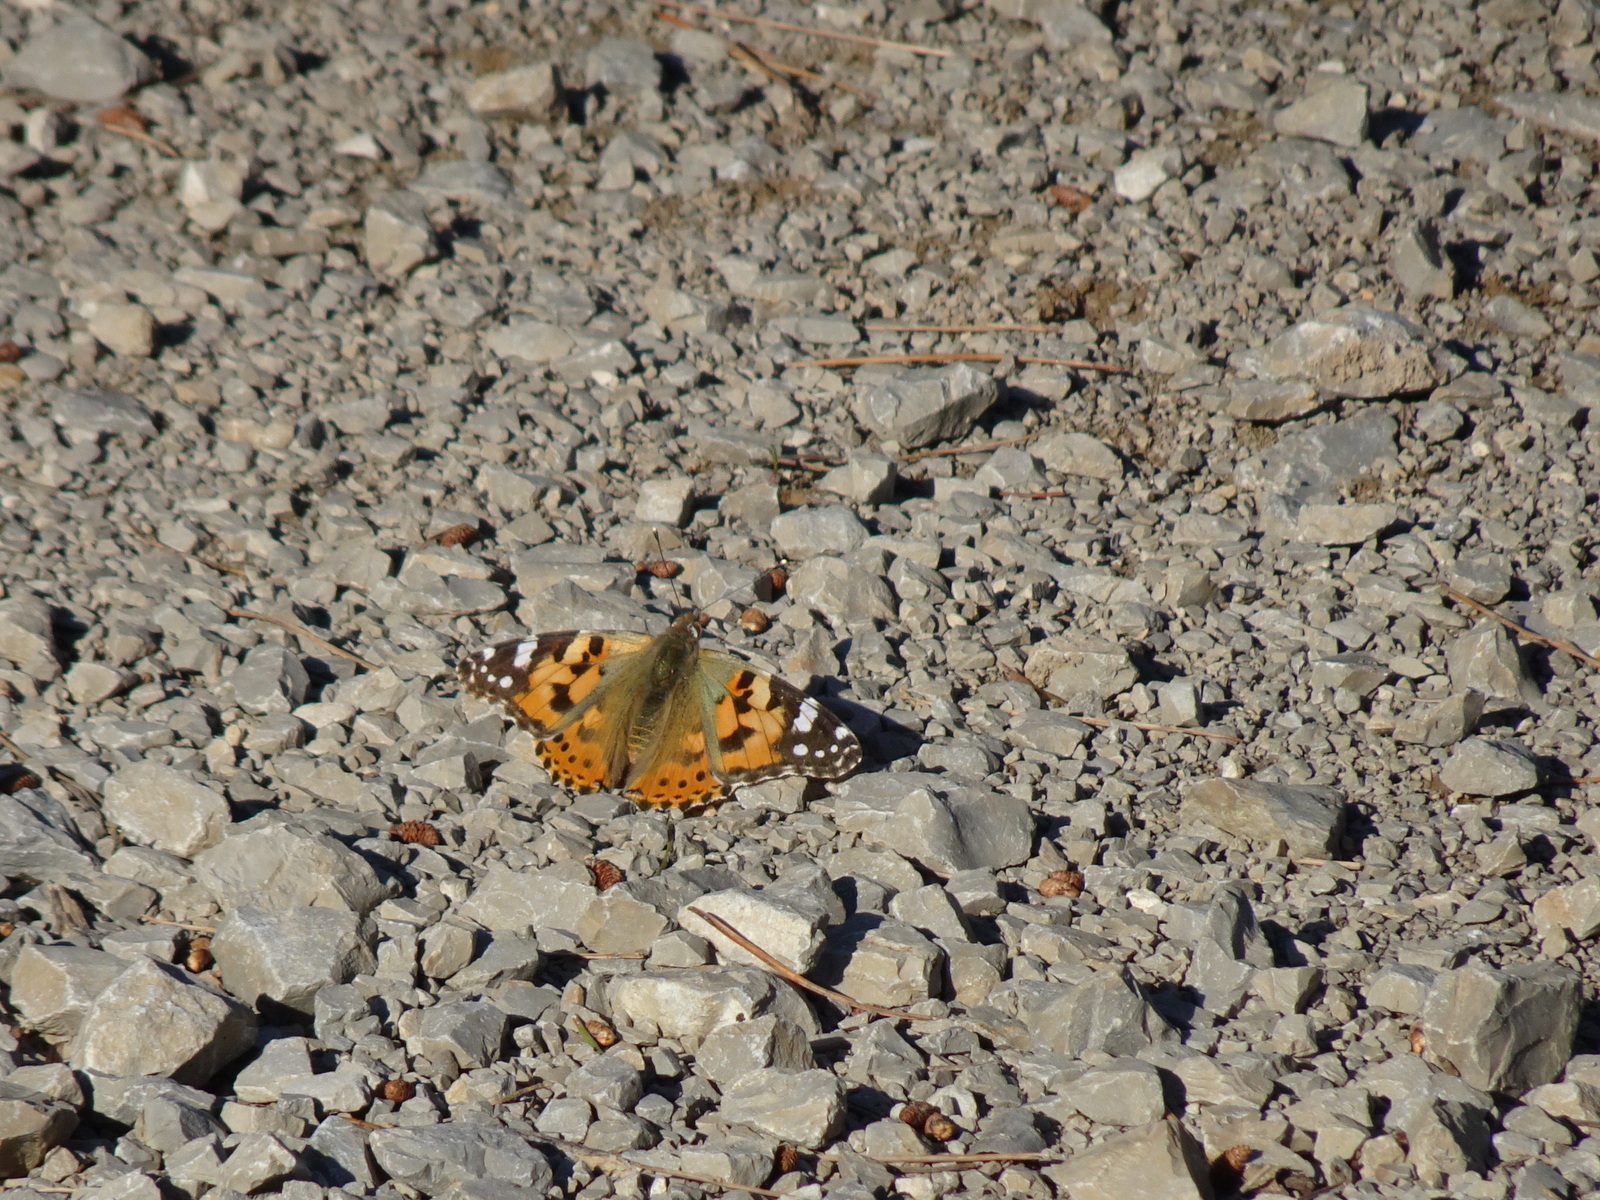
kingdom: Animalia
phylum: Arthropoda
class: Insecta
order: Lepidoptera
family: Nymphalidae
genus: Vanessa
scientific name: Vanessa cardui
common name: Painted lady
